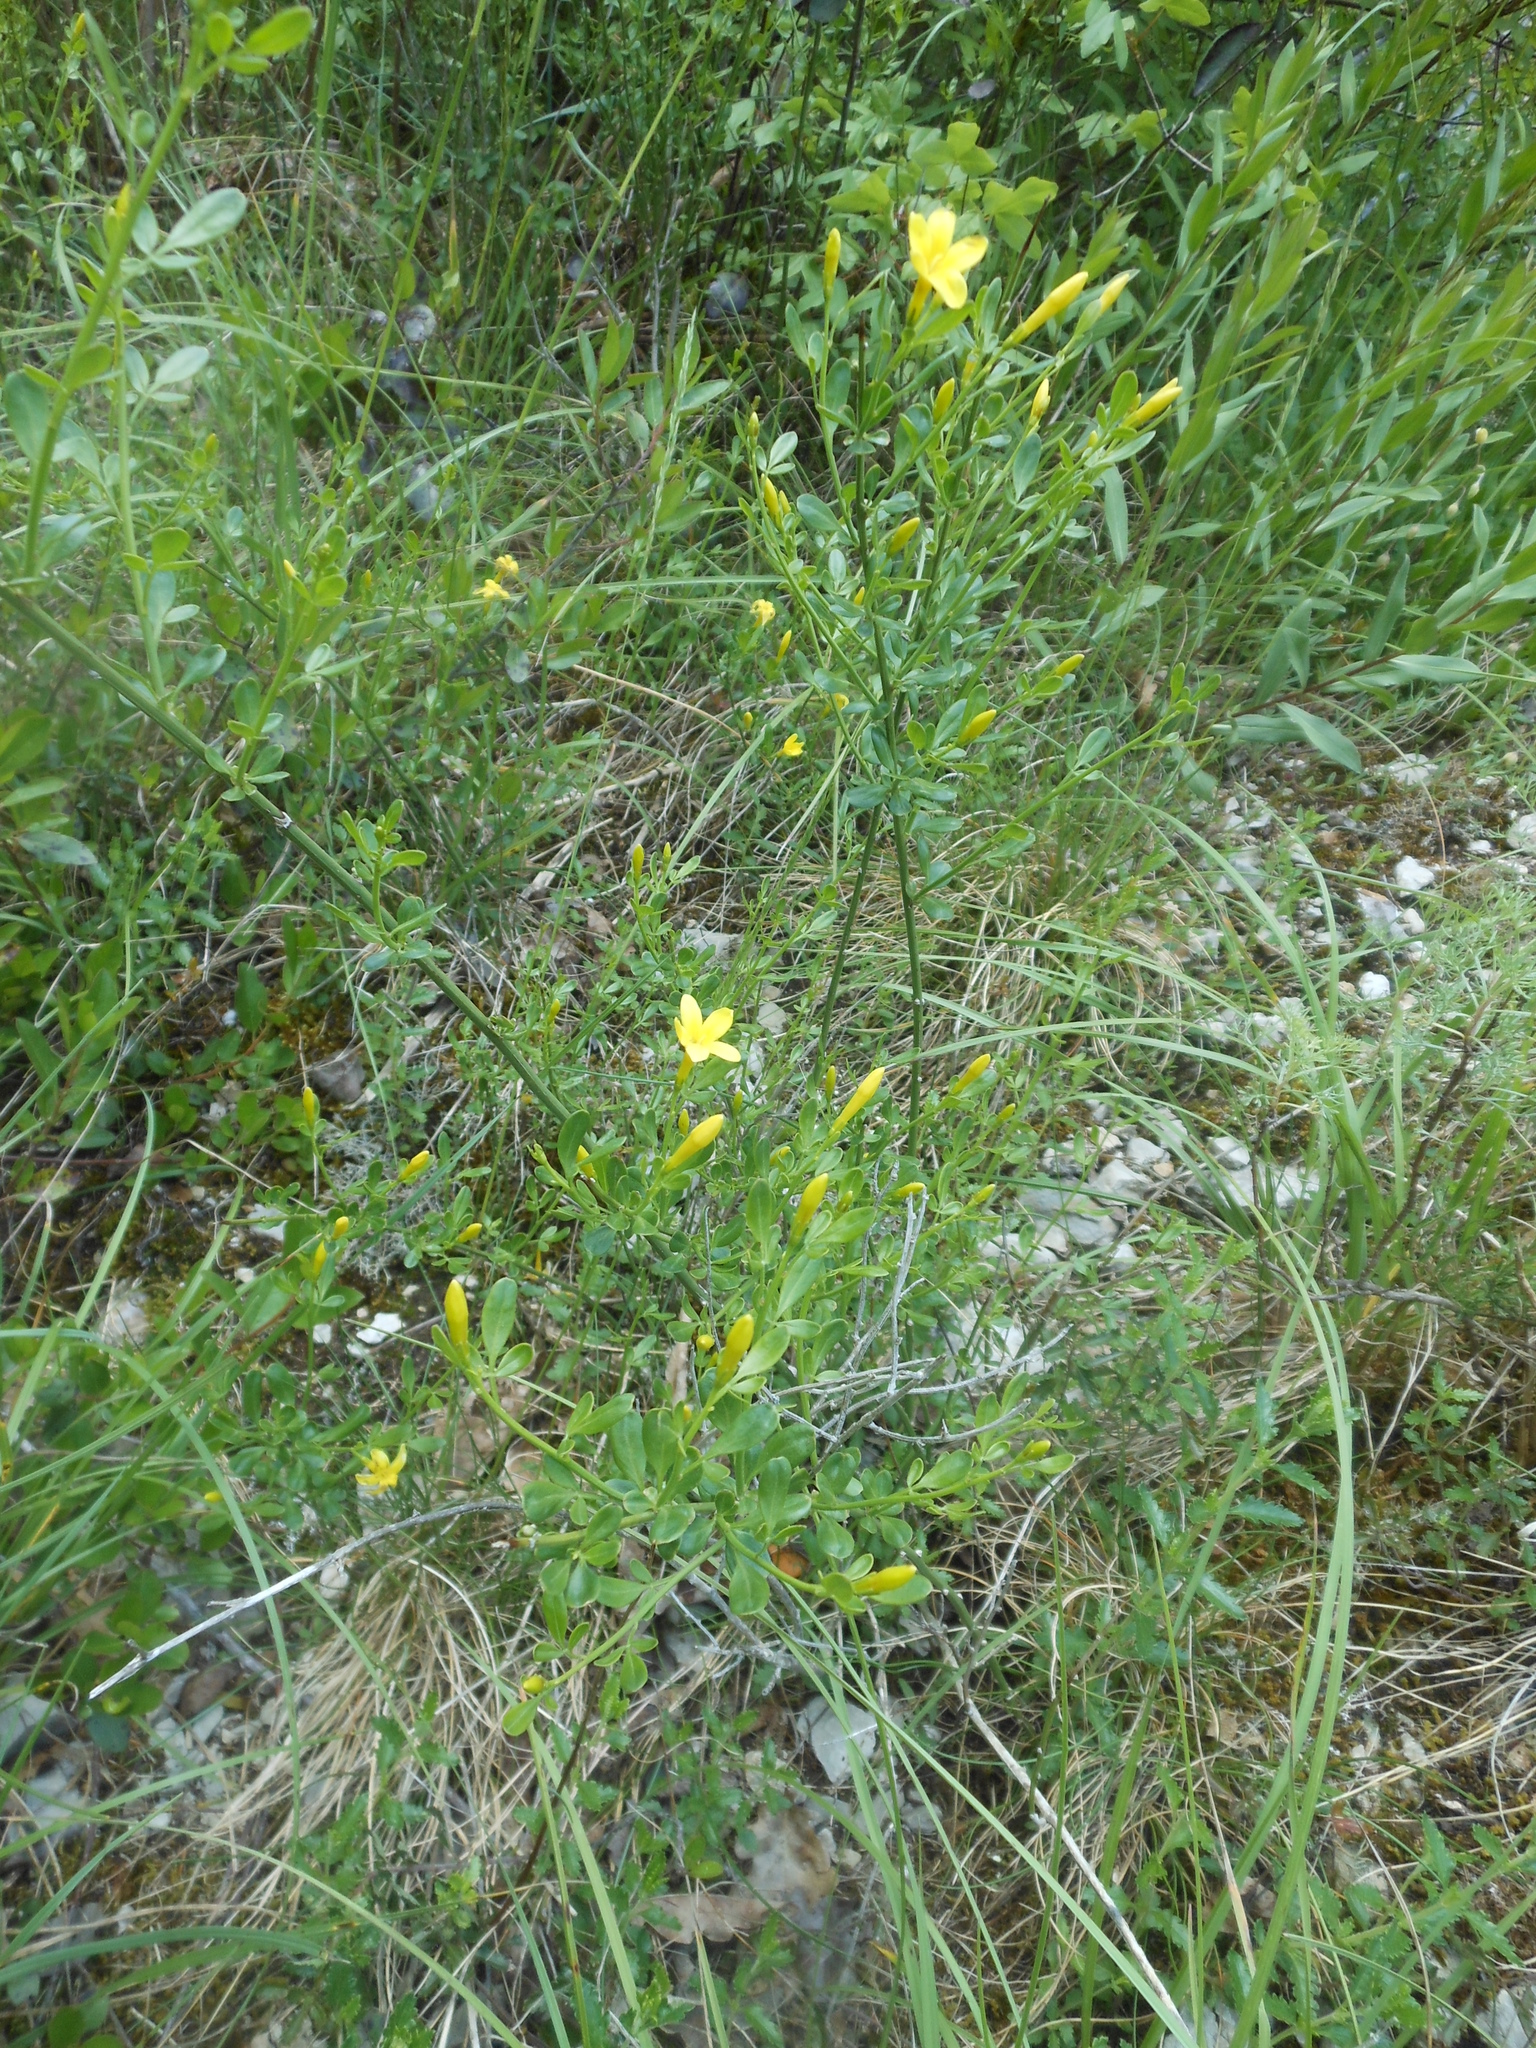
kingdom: Plantae
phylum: Tracheophyta
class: Magnoliopsida
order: Lamiales
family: Oleaceae
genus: Chrysojasminum
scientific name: Chrysojasminum fruticans
